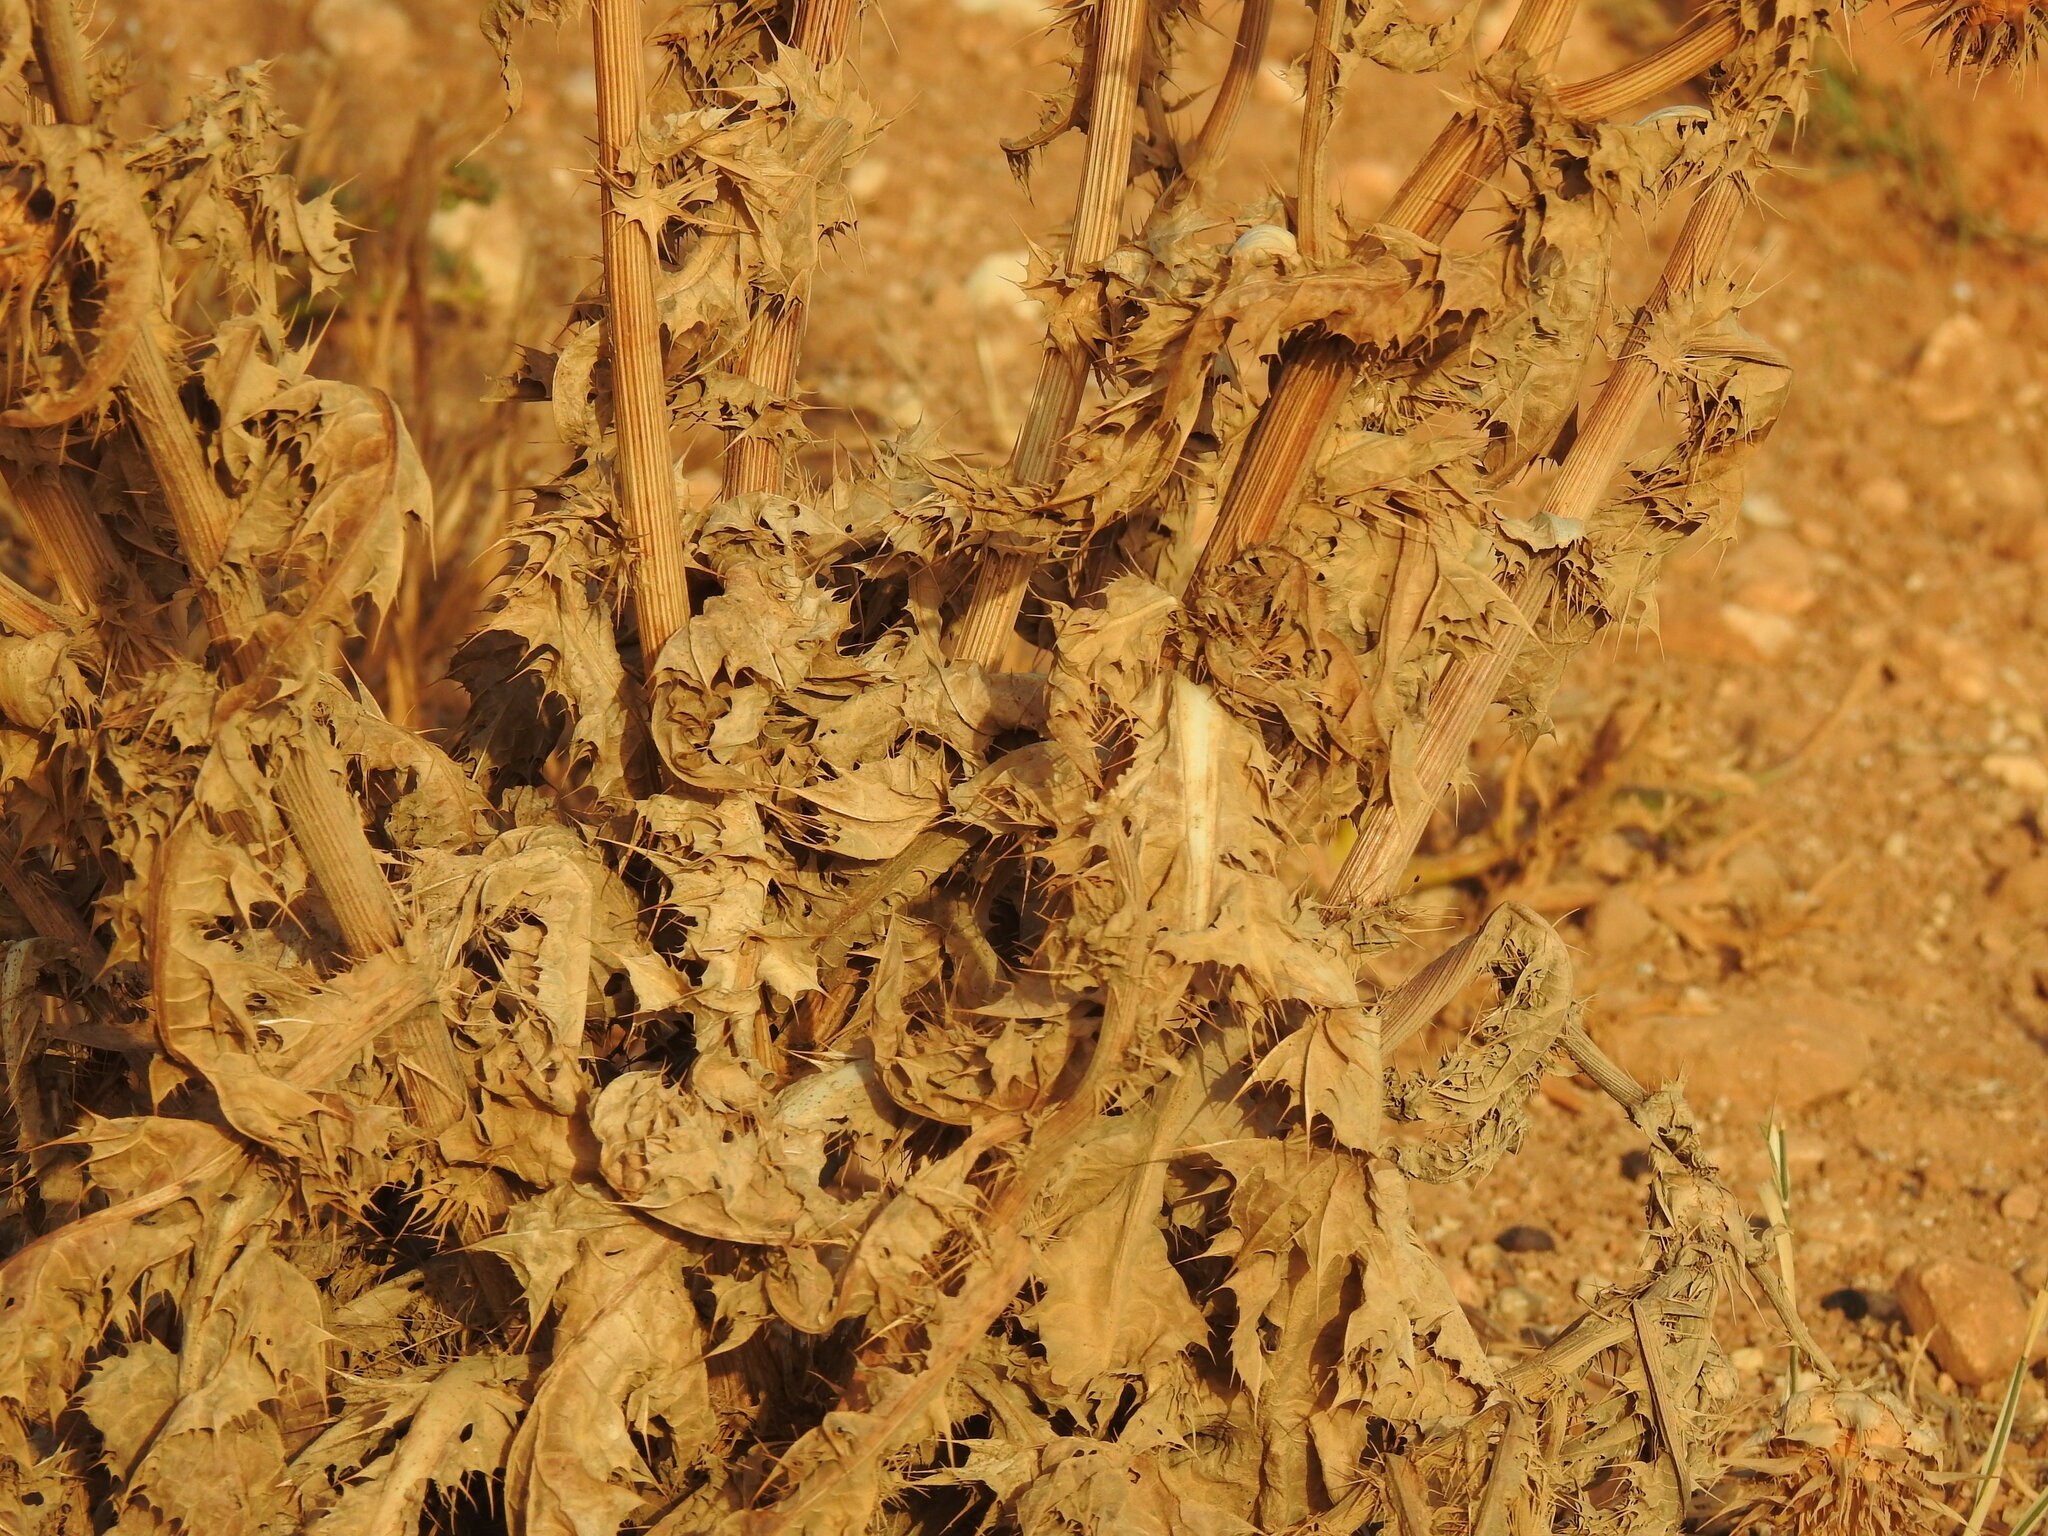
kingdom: Plantae
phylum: Tracheophyta
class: Magnoliopsida
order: Asterales
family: Asteraceae
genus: Silybum
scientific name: Silybum marianum
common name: Milk thistle
